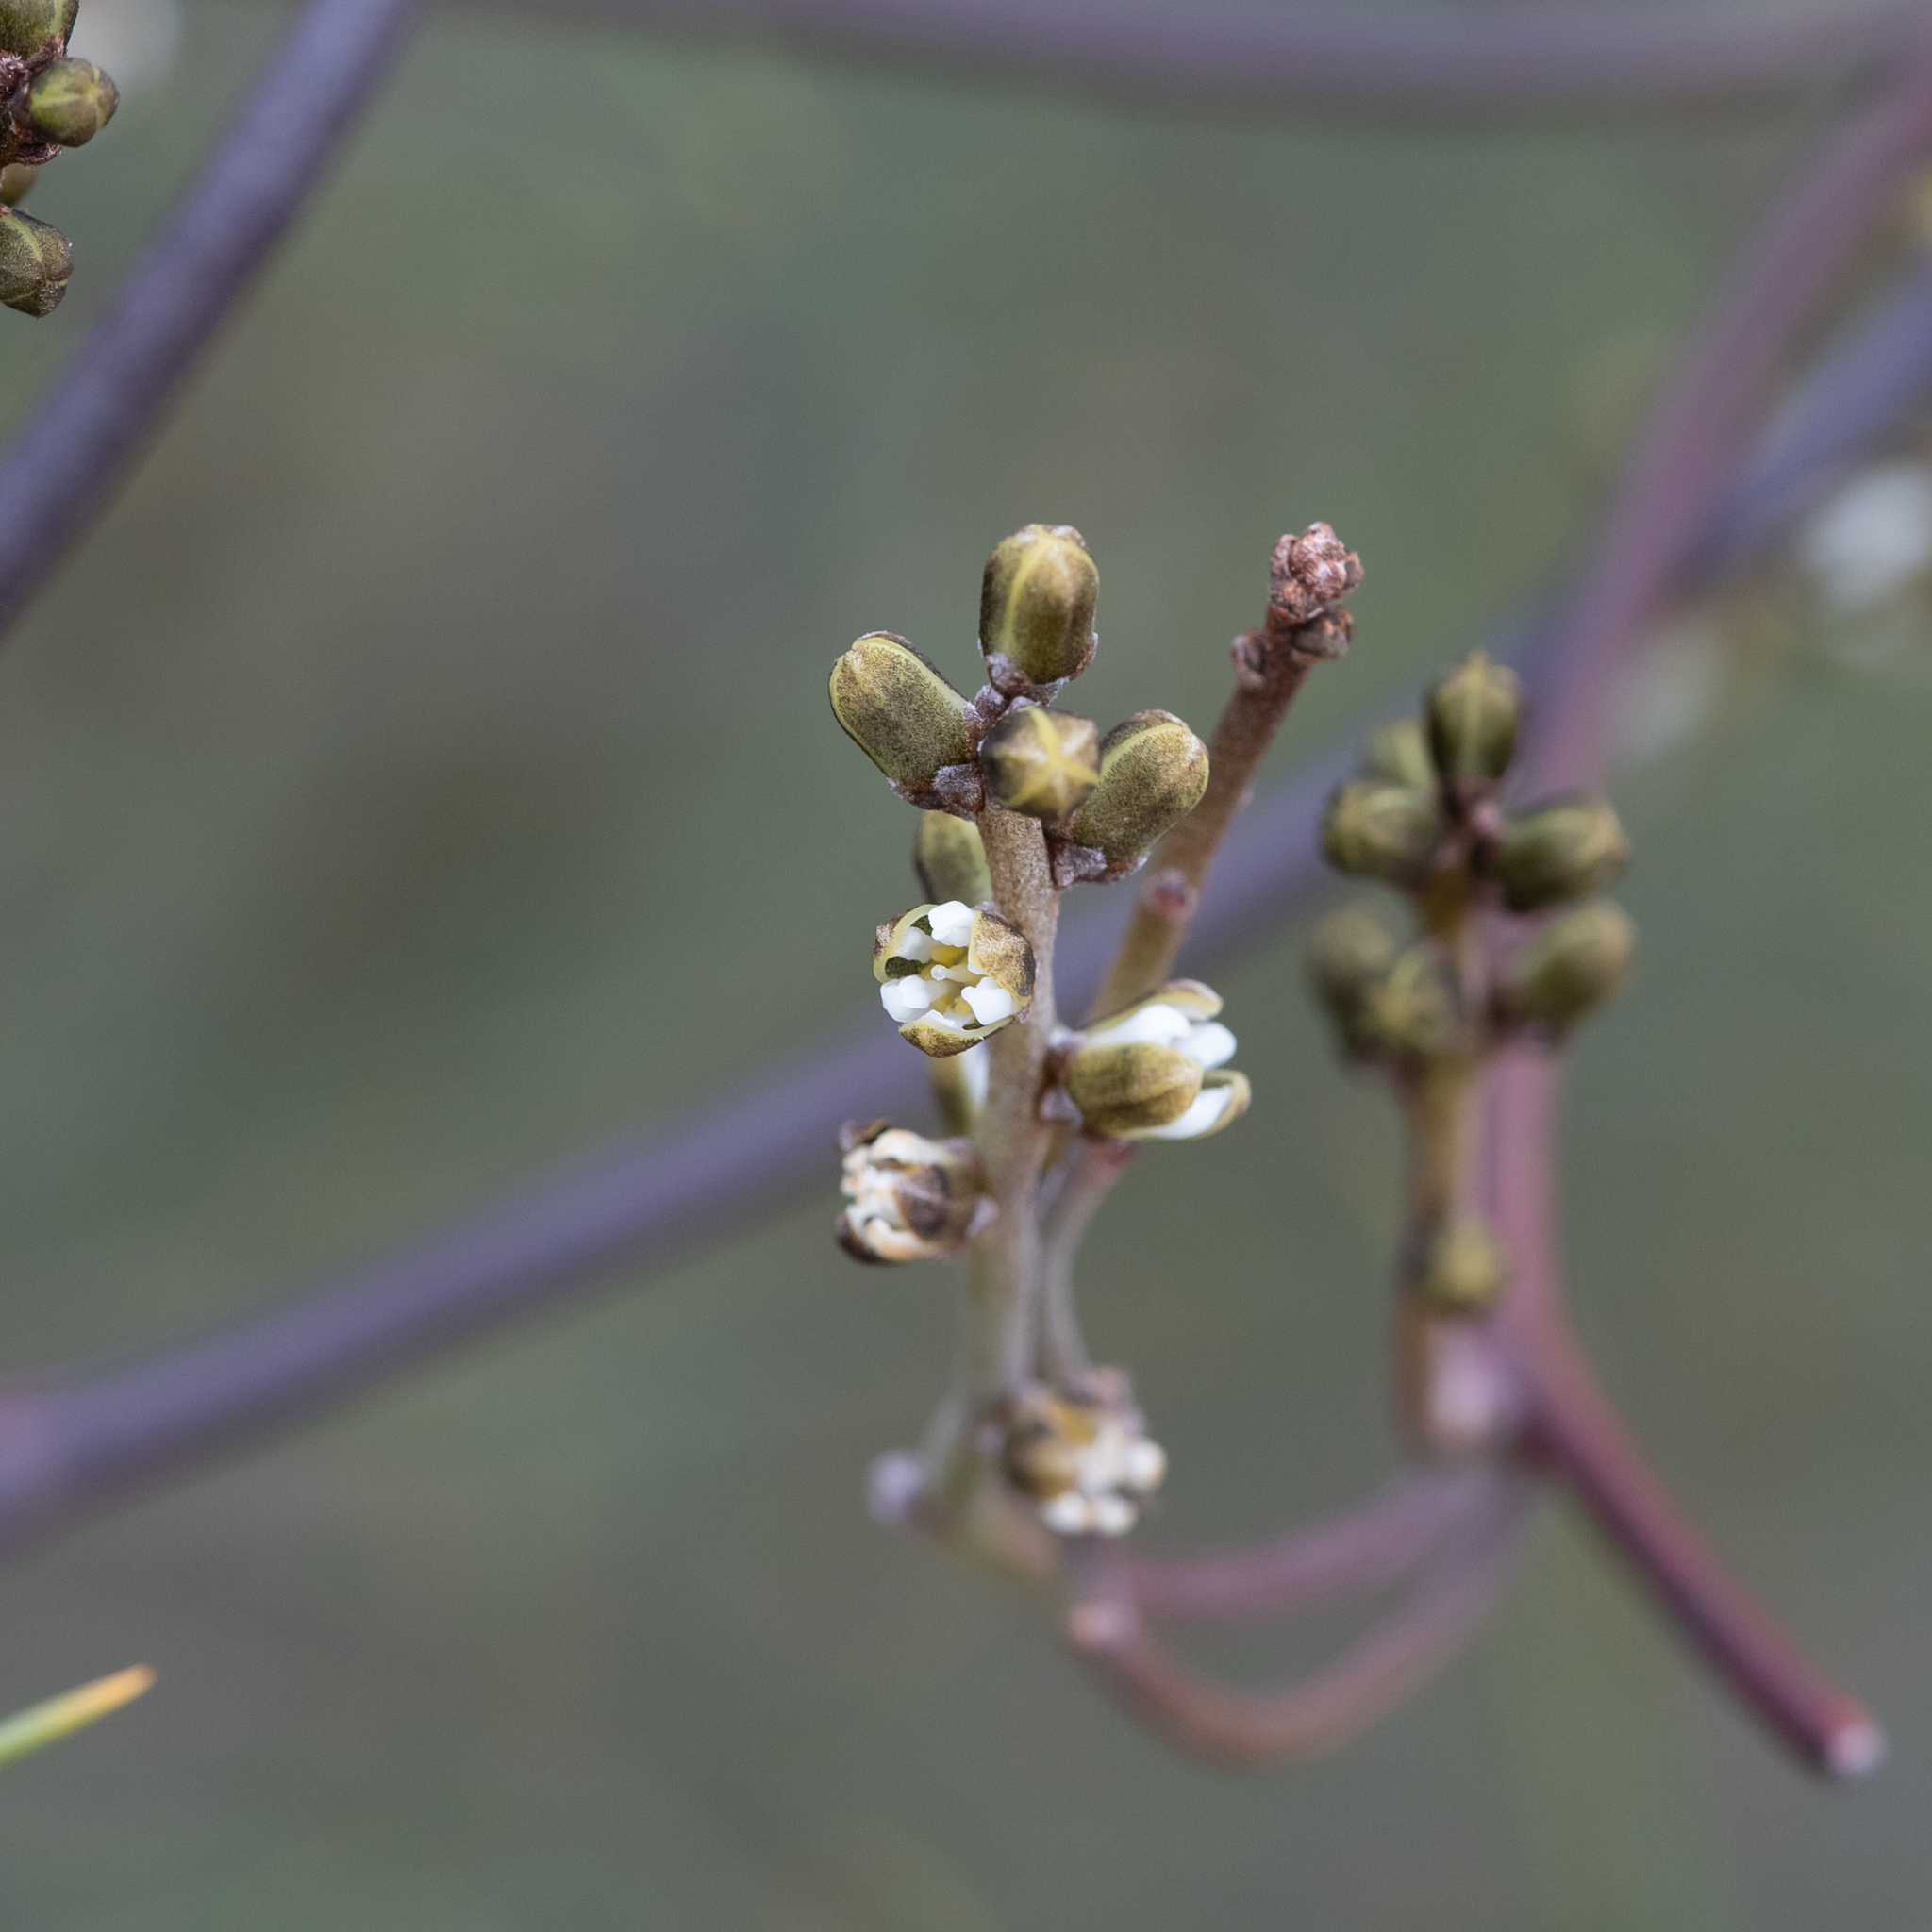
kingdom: Plantae
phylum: Tracheophyta
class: Magnoliopsida
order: Laurales
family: Lauraceae
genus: Cassytha
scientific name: Cassytha melantha
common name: Mallee stranglevine
